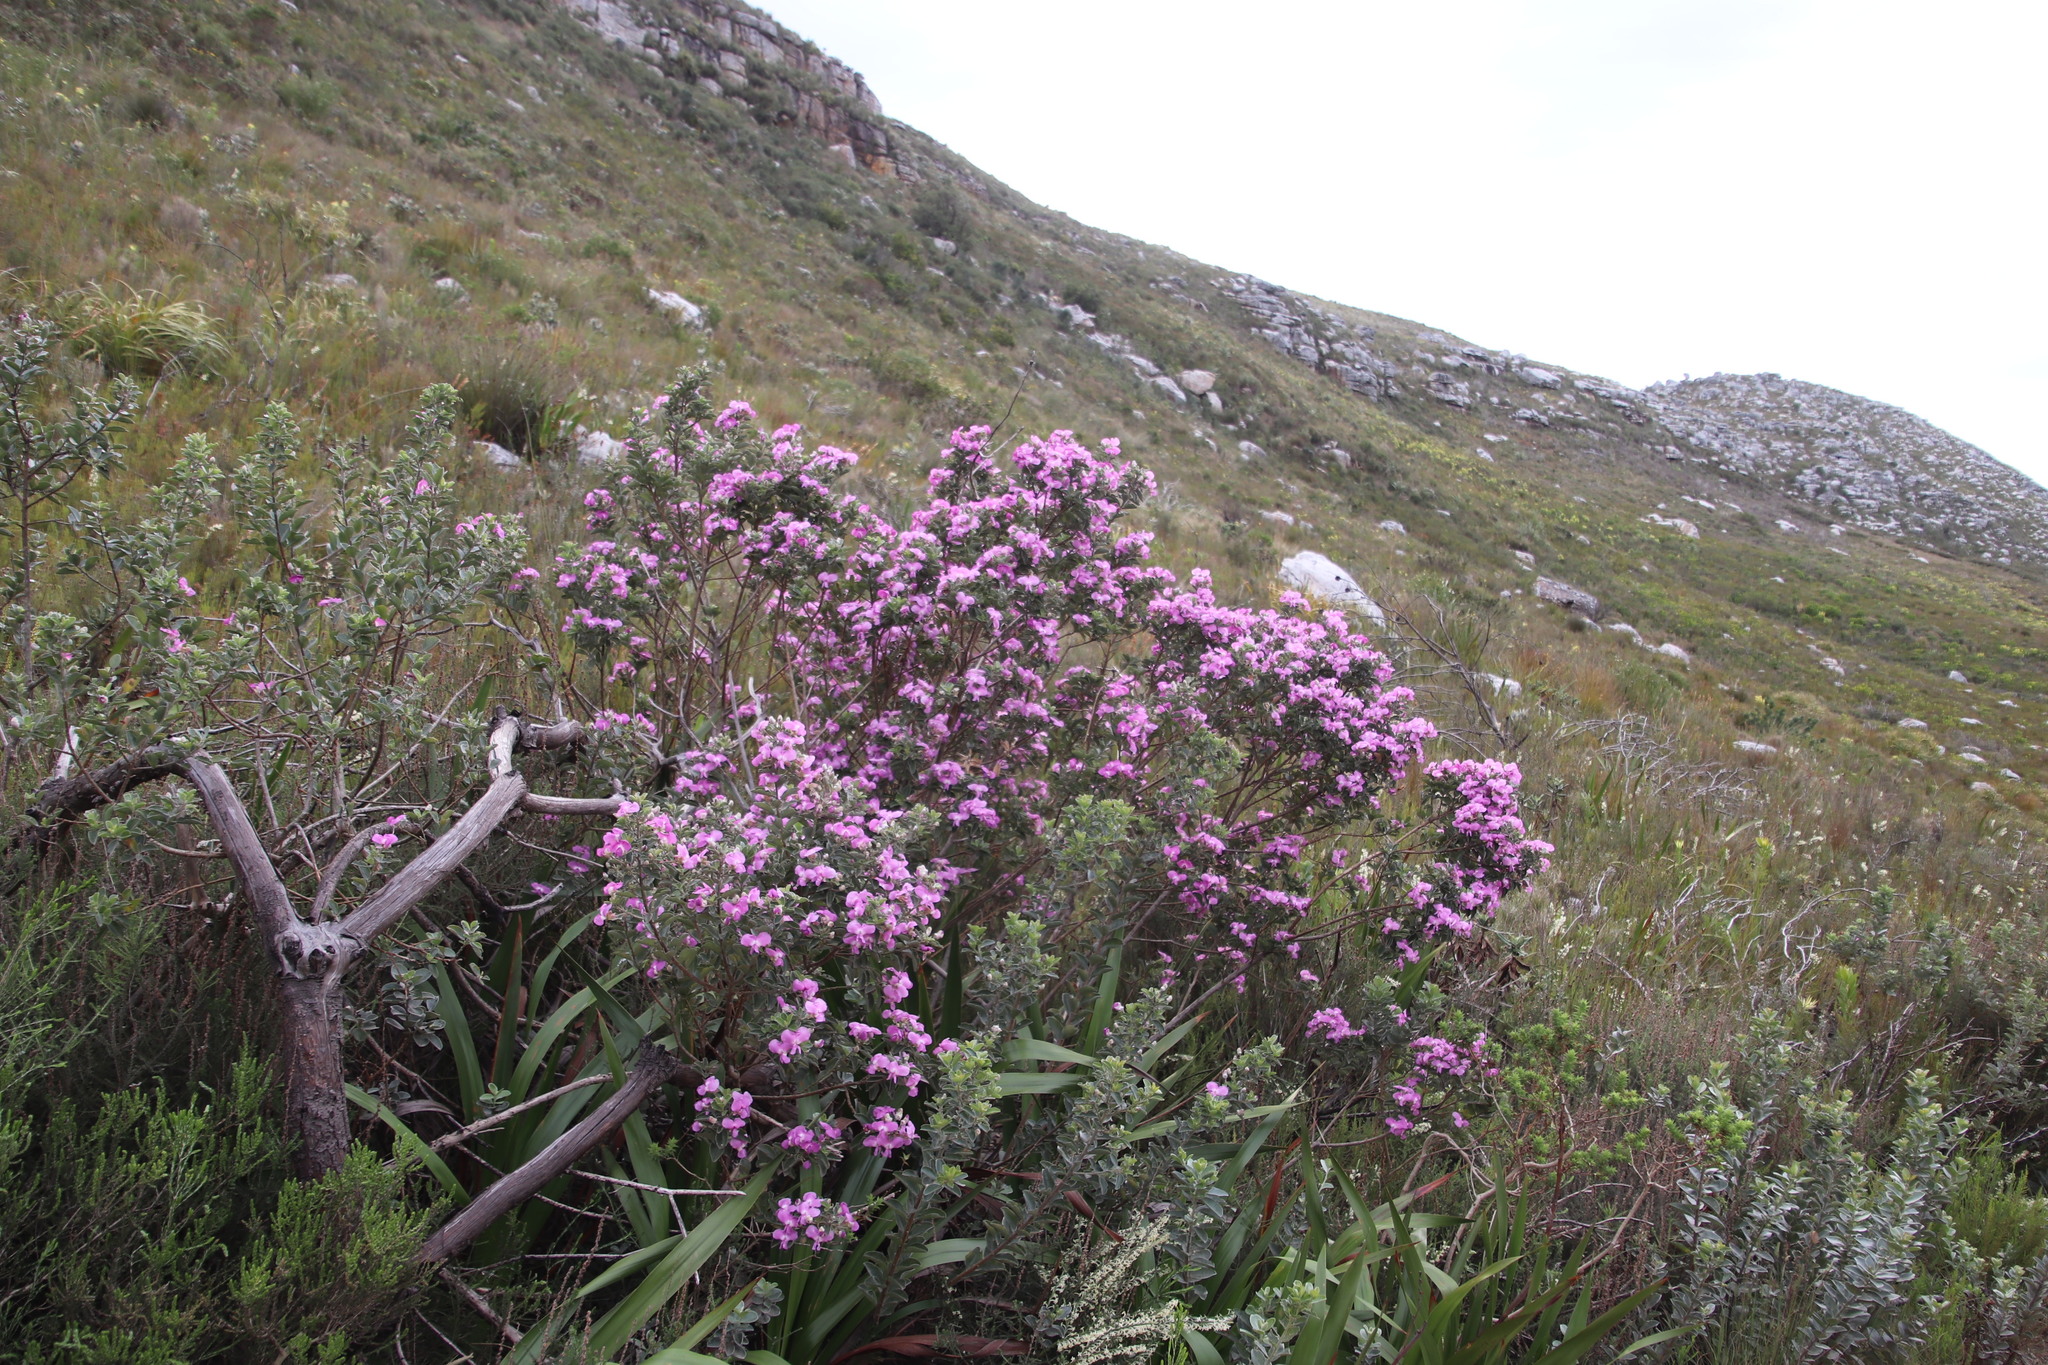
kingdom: Plantae
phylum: Tracheophyta
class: Magnoliopsida
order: Fabales
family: Fabaceae
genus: Podalyria
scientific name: Podalyria calyptrata
